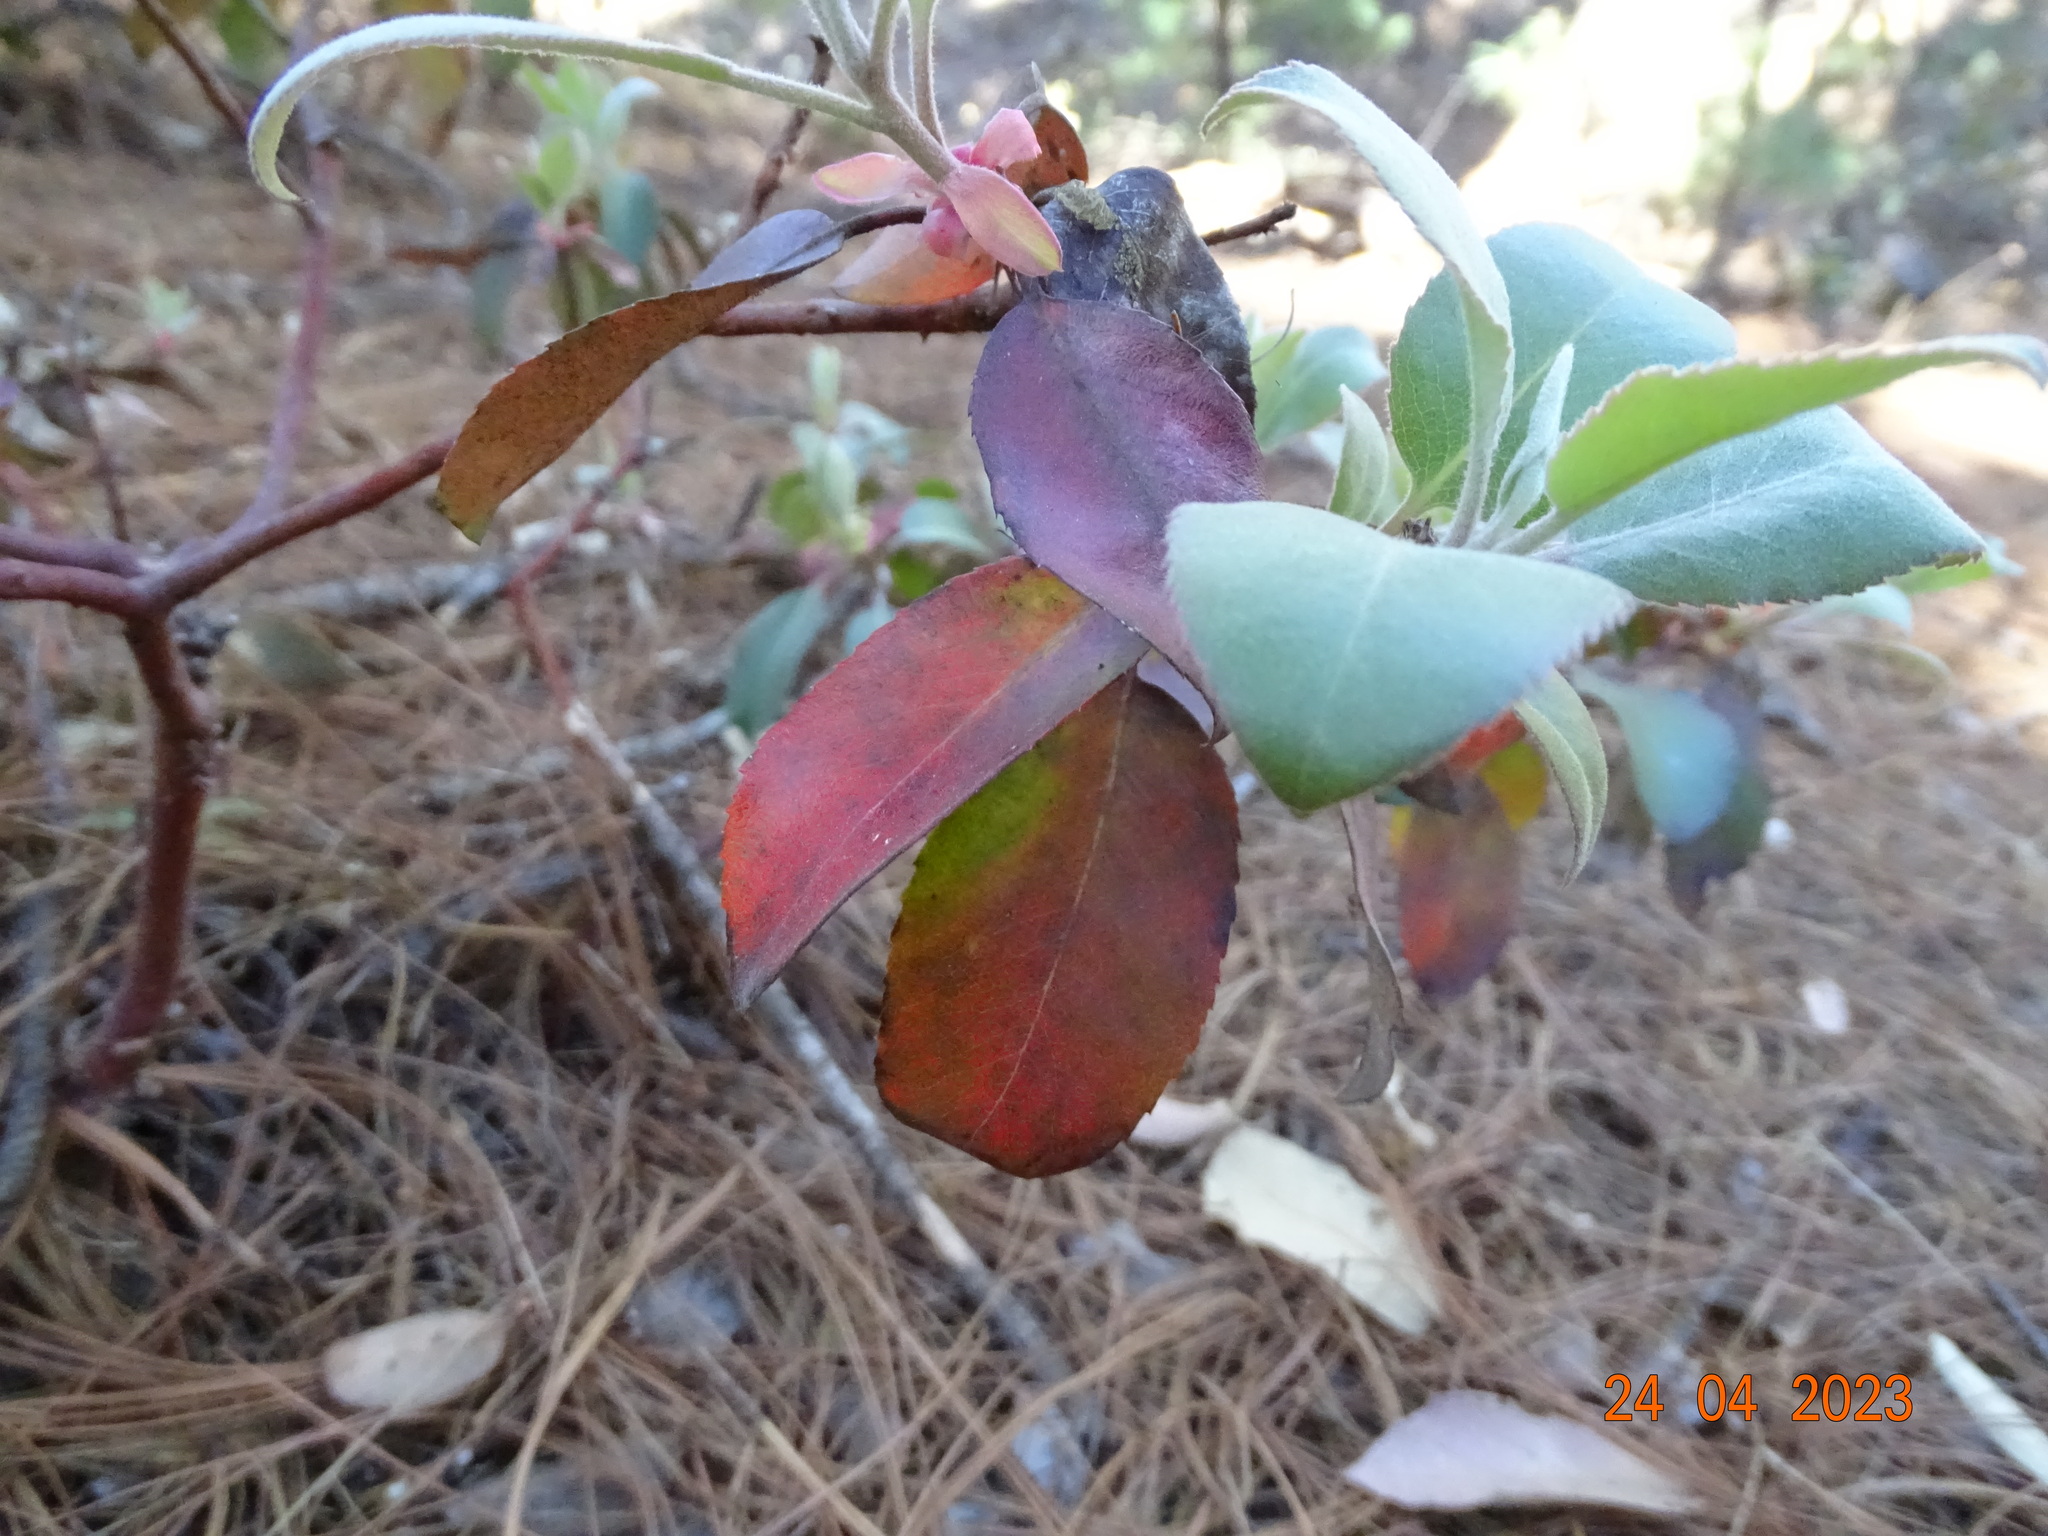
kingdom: Plantae
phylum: Tracheophyta
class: Magnoliopsida
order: Ericales
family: Ericaceae
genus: Arbutus
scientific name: Arbutus mollis
